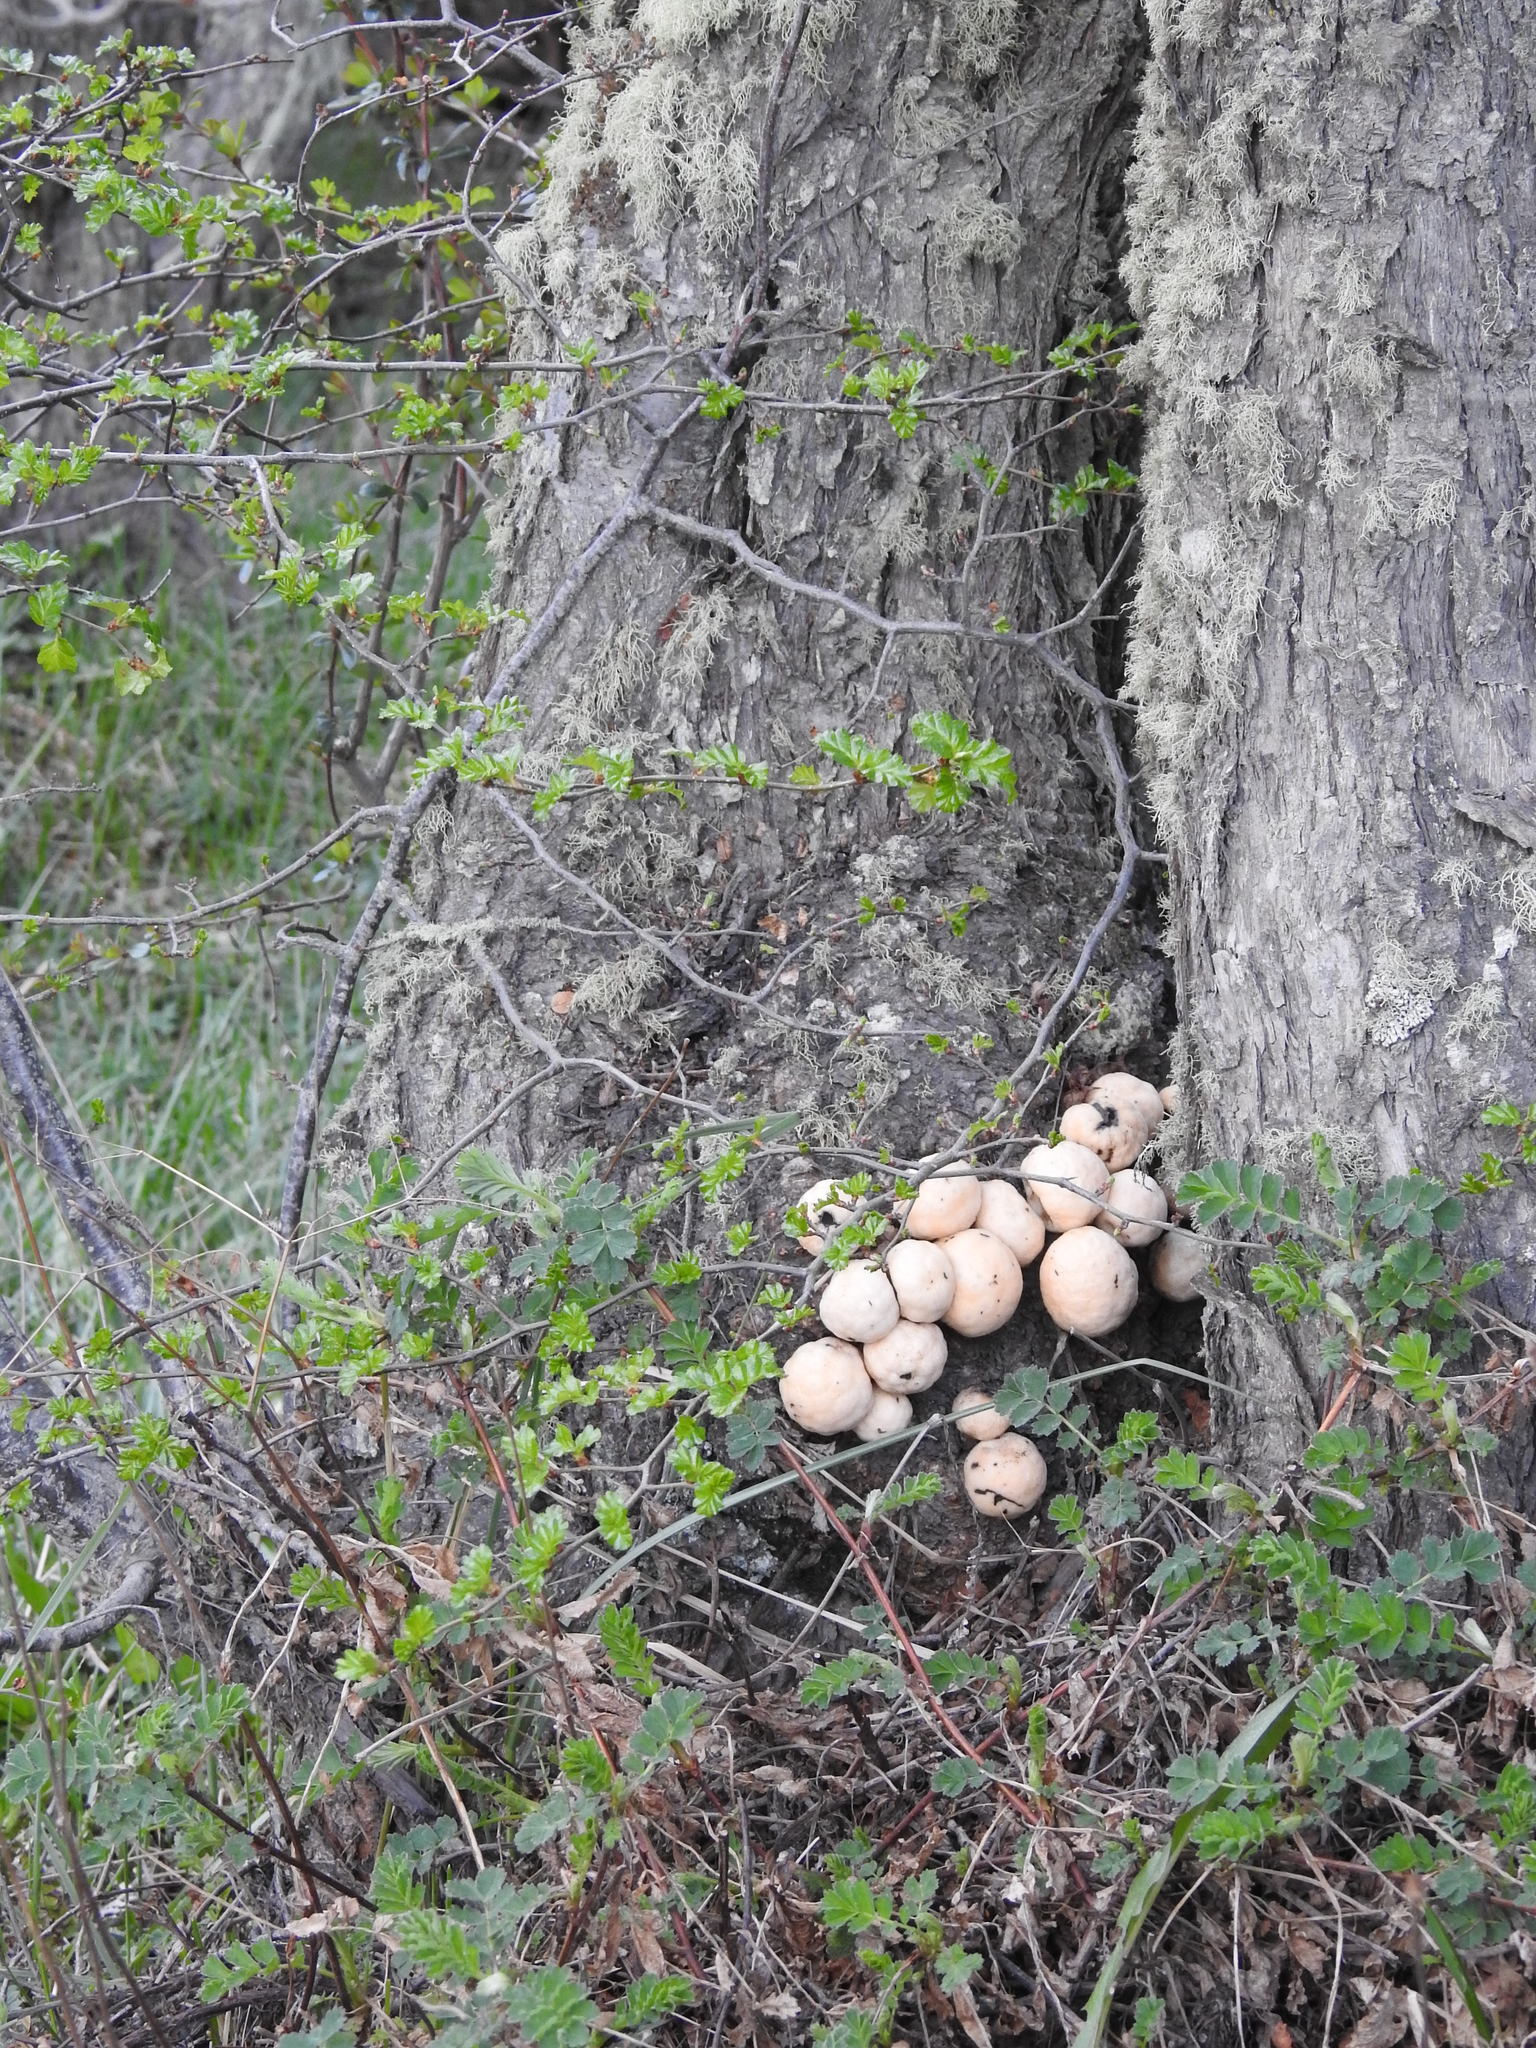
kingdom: Fungi
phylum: Ascomycota
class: Leotiomycetes
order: Cyttariales
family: Cyttariaceae
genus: Cyttaria
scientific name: Cyttaria darwinii
